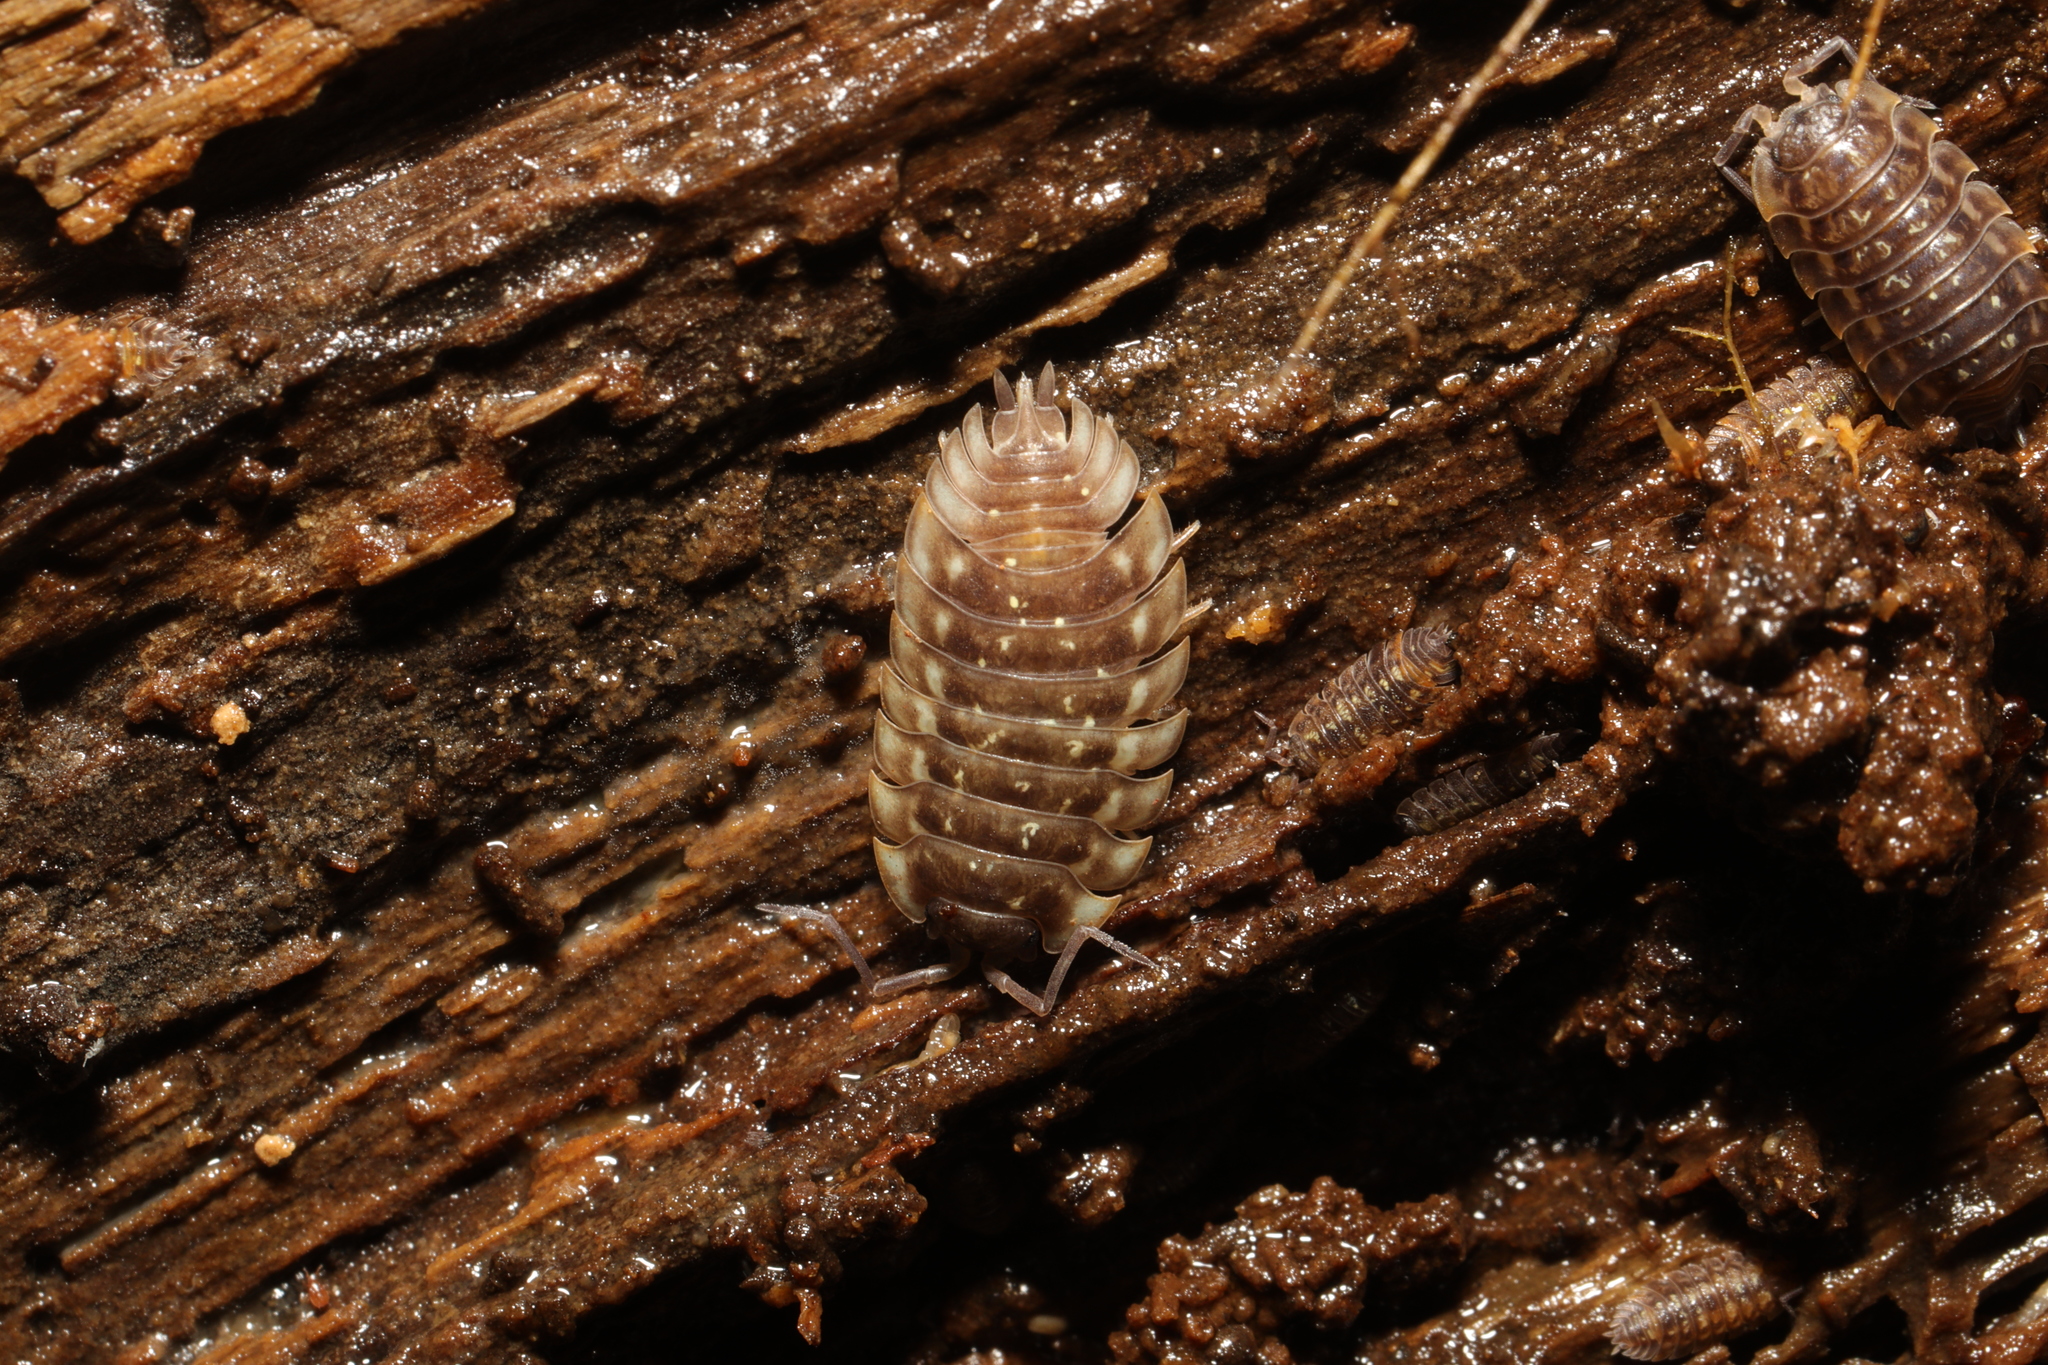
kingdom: Animalia
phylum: Arthropoda
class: Malacostraca
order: Isopoda
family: Oniscidae
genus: Oniscus
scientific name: Oniscus asellus
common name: Common shiny woodlouse
